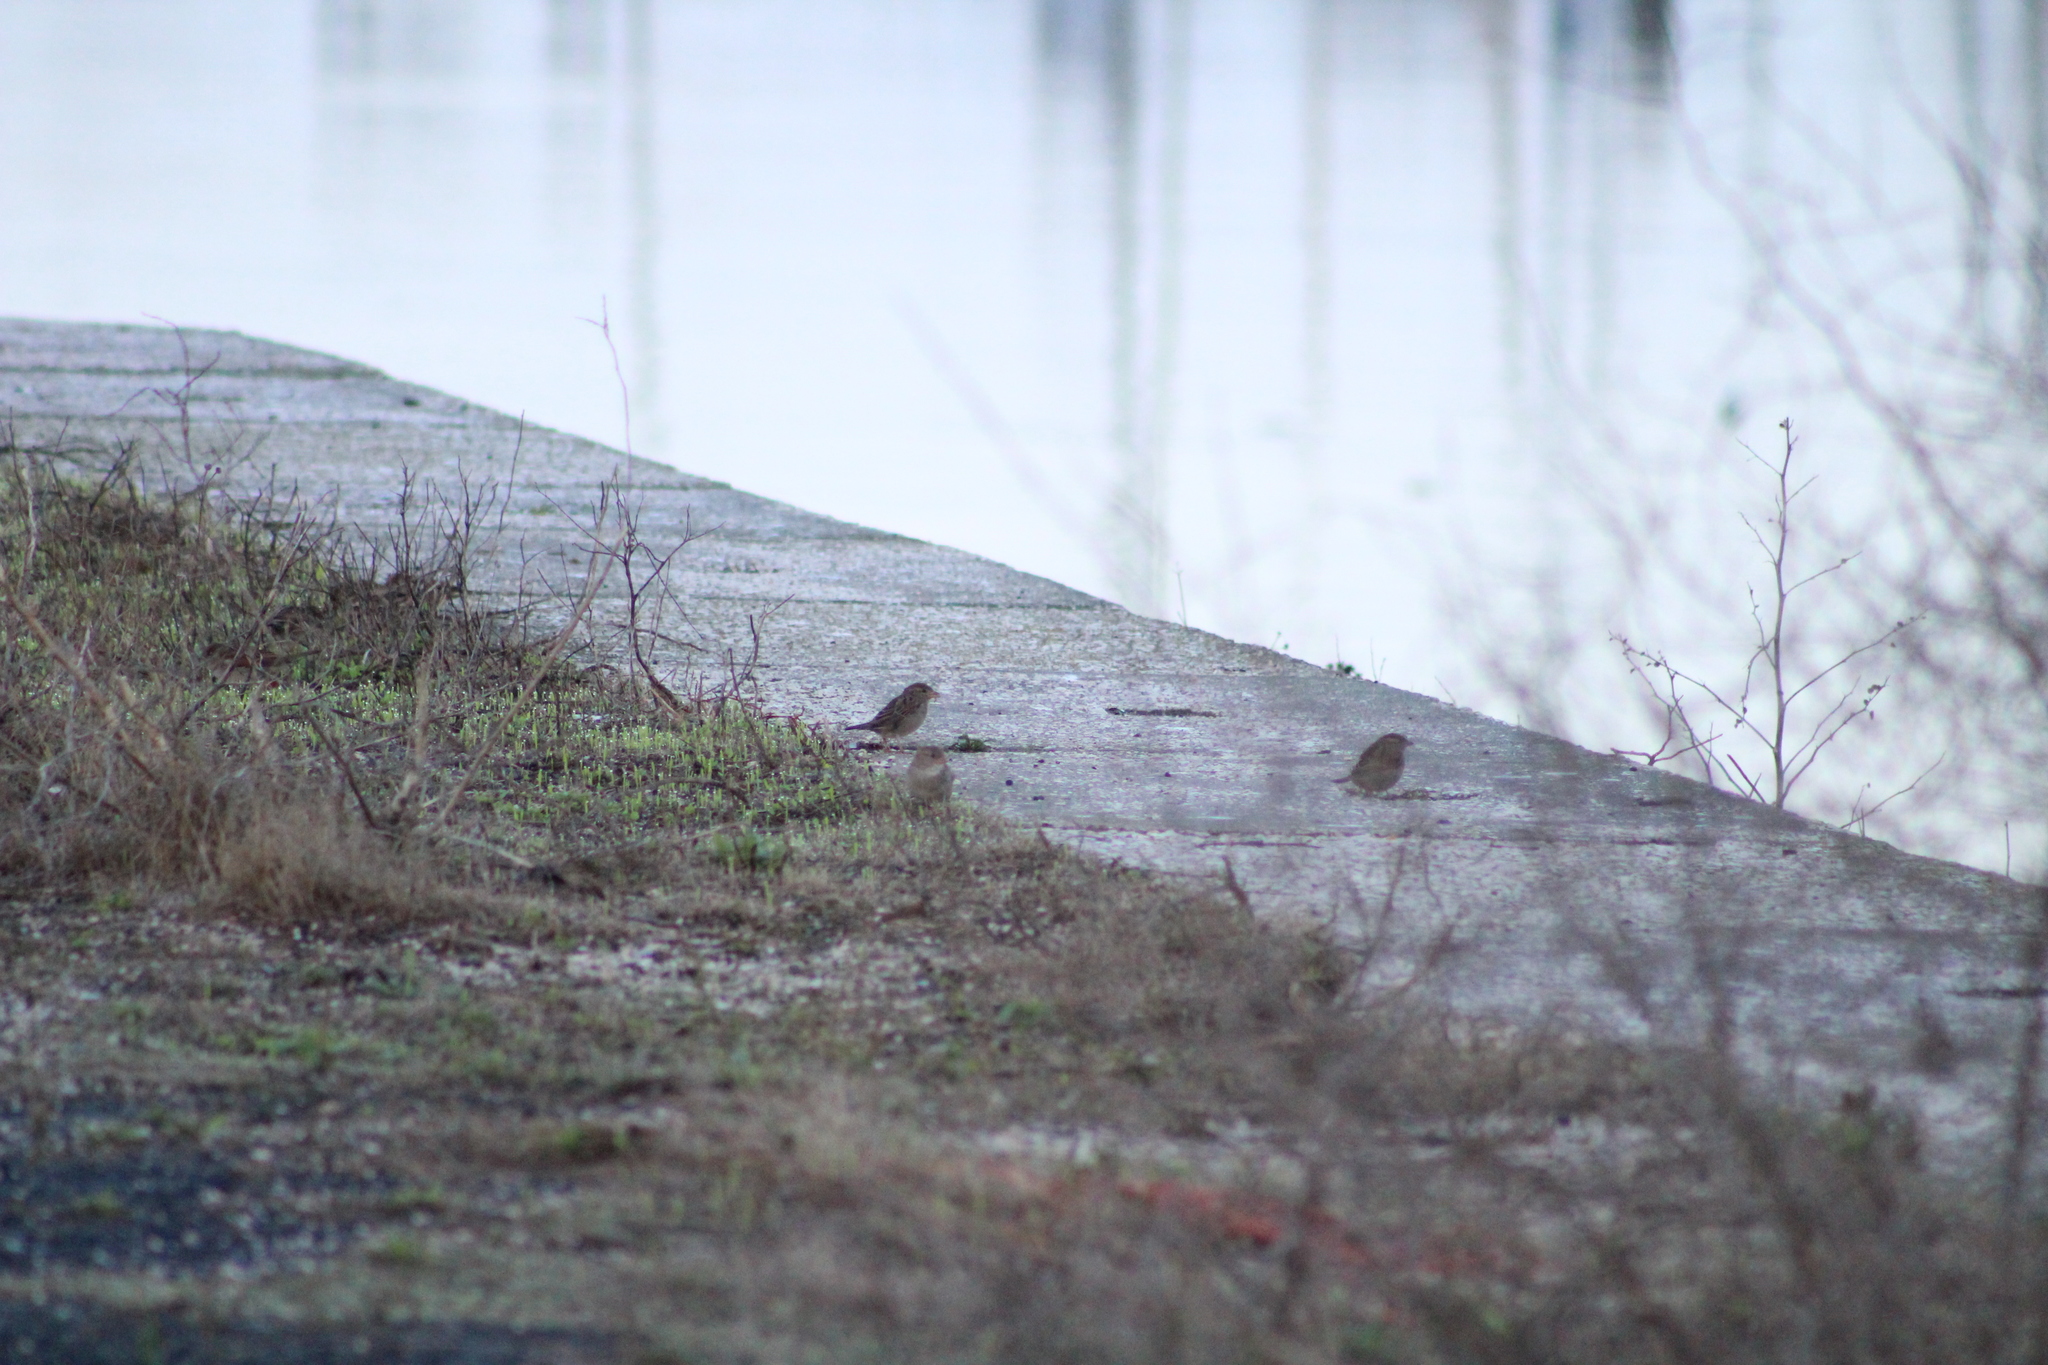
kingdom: Animalia
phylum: Chordata
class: Aves
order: Passeriformes
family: Passeridae
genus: Passer
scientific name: Passer domesticus
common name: House sparrow
